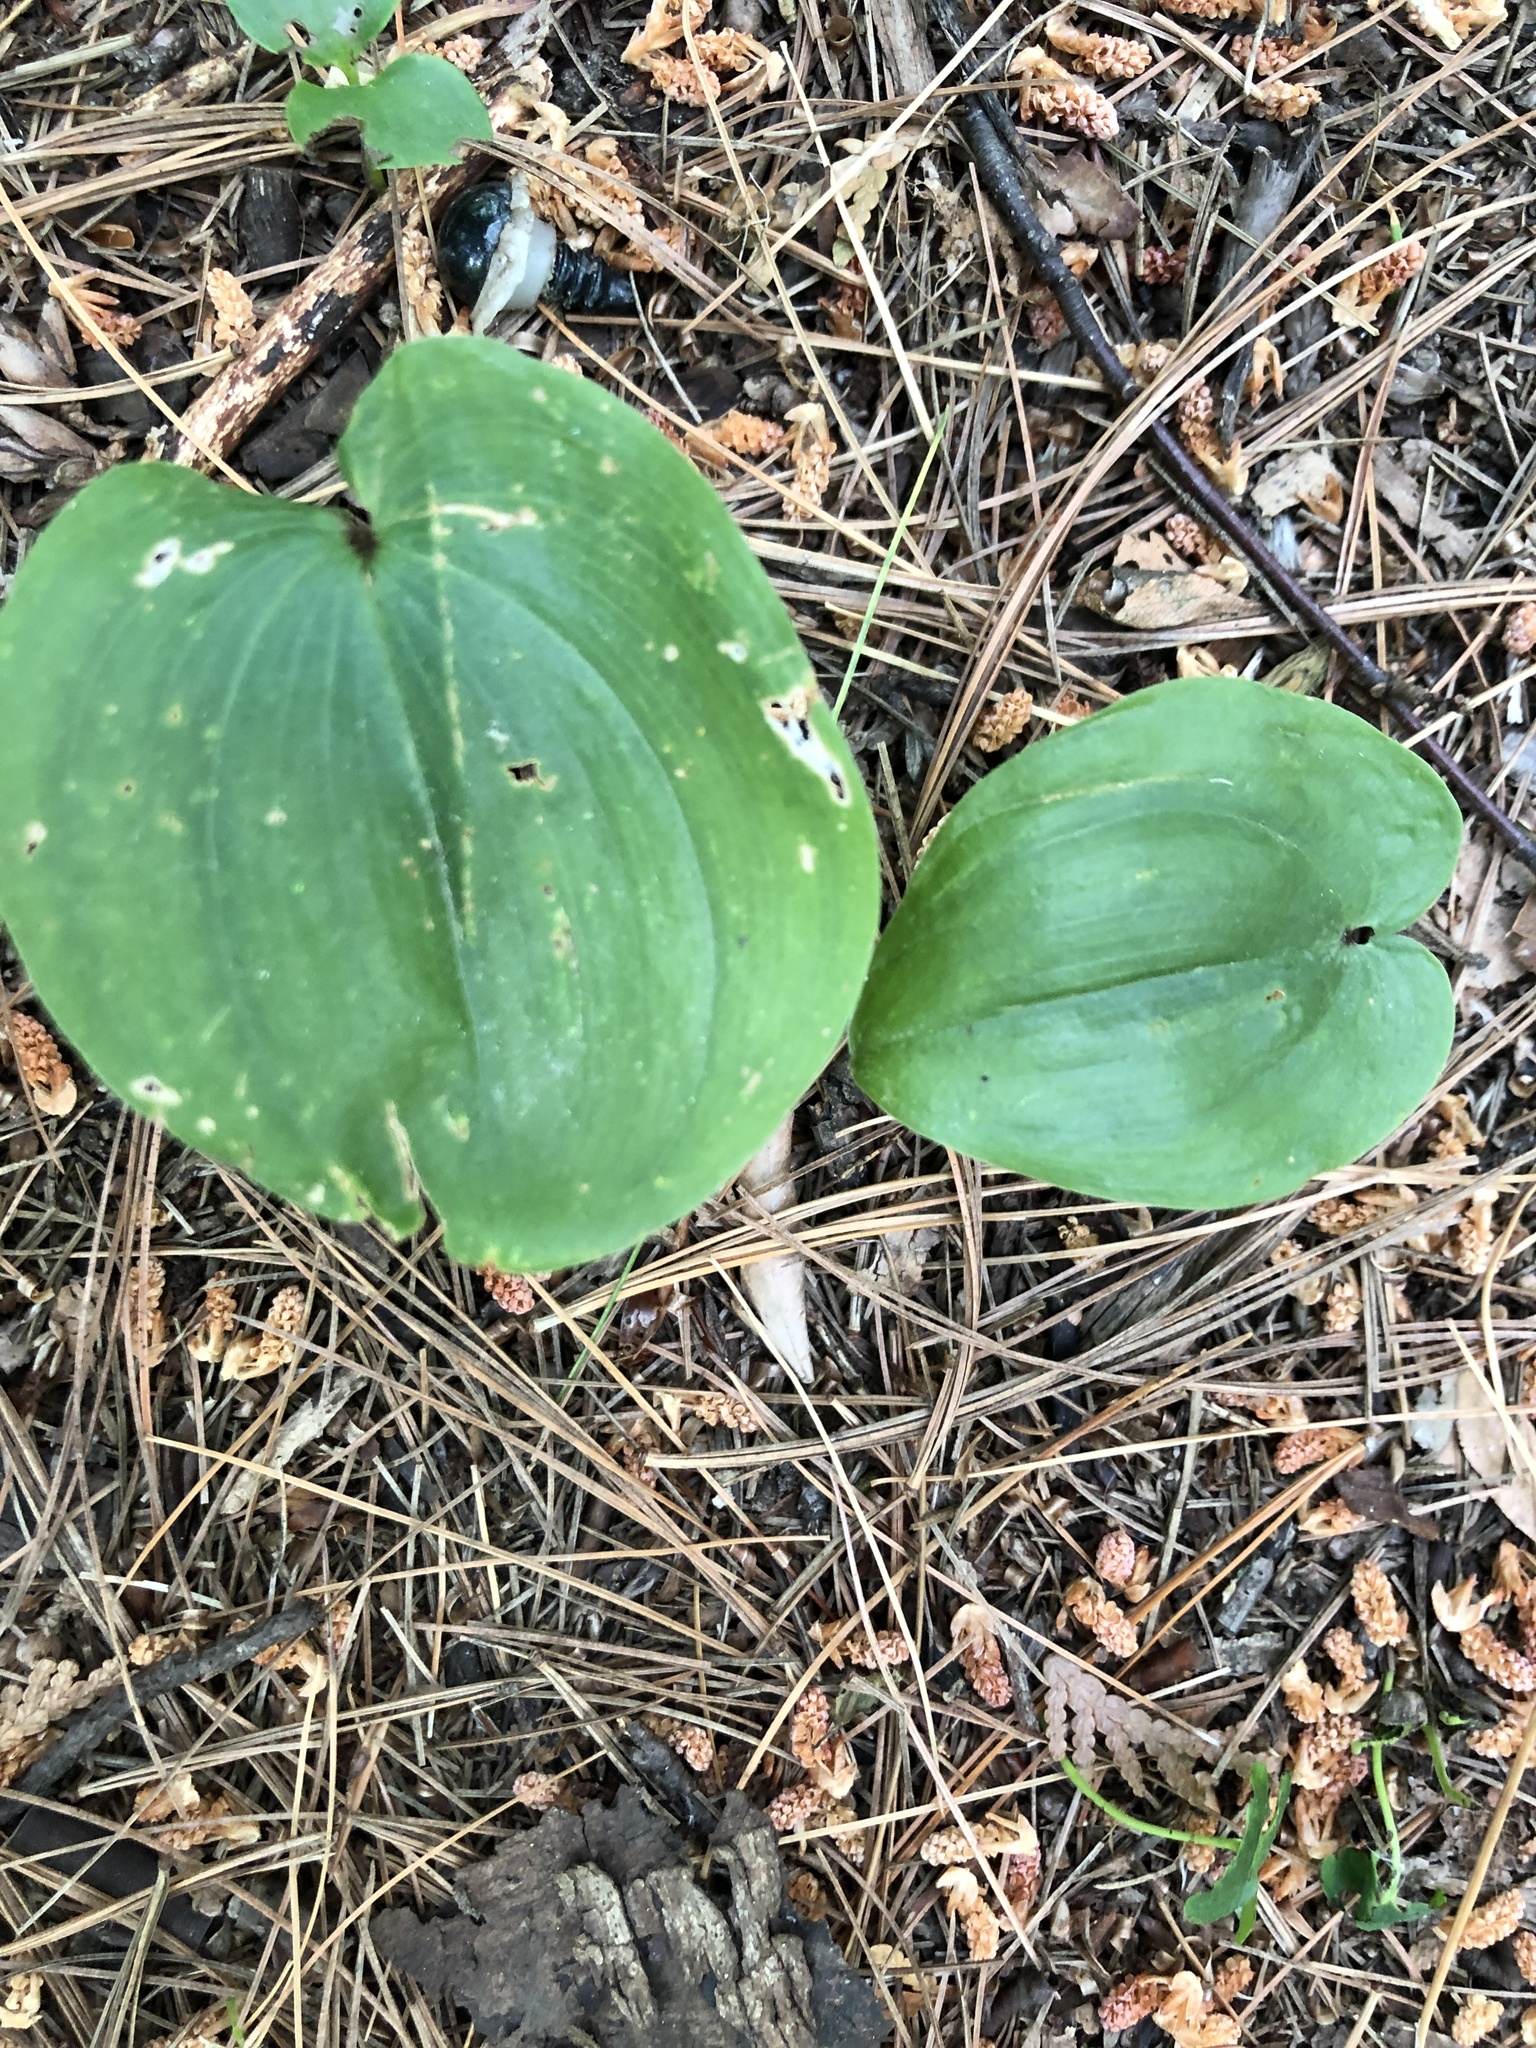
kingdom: Plantae
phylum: Tracheophyta
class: Liliopsida
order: Asparagales
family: Asparagaceae
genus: Maianthemum
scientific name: Maianthemum canadense
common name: False lily-of-the-valley
